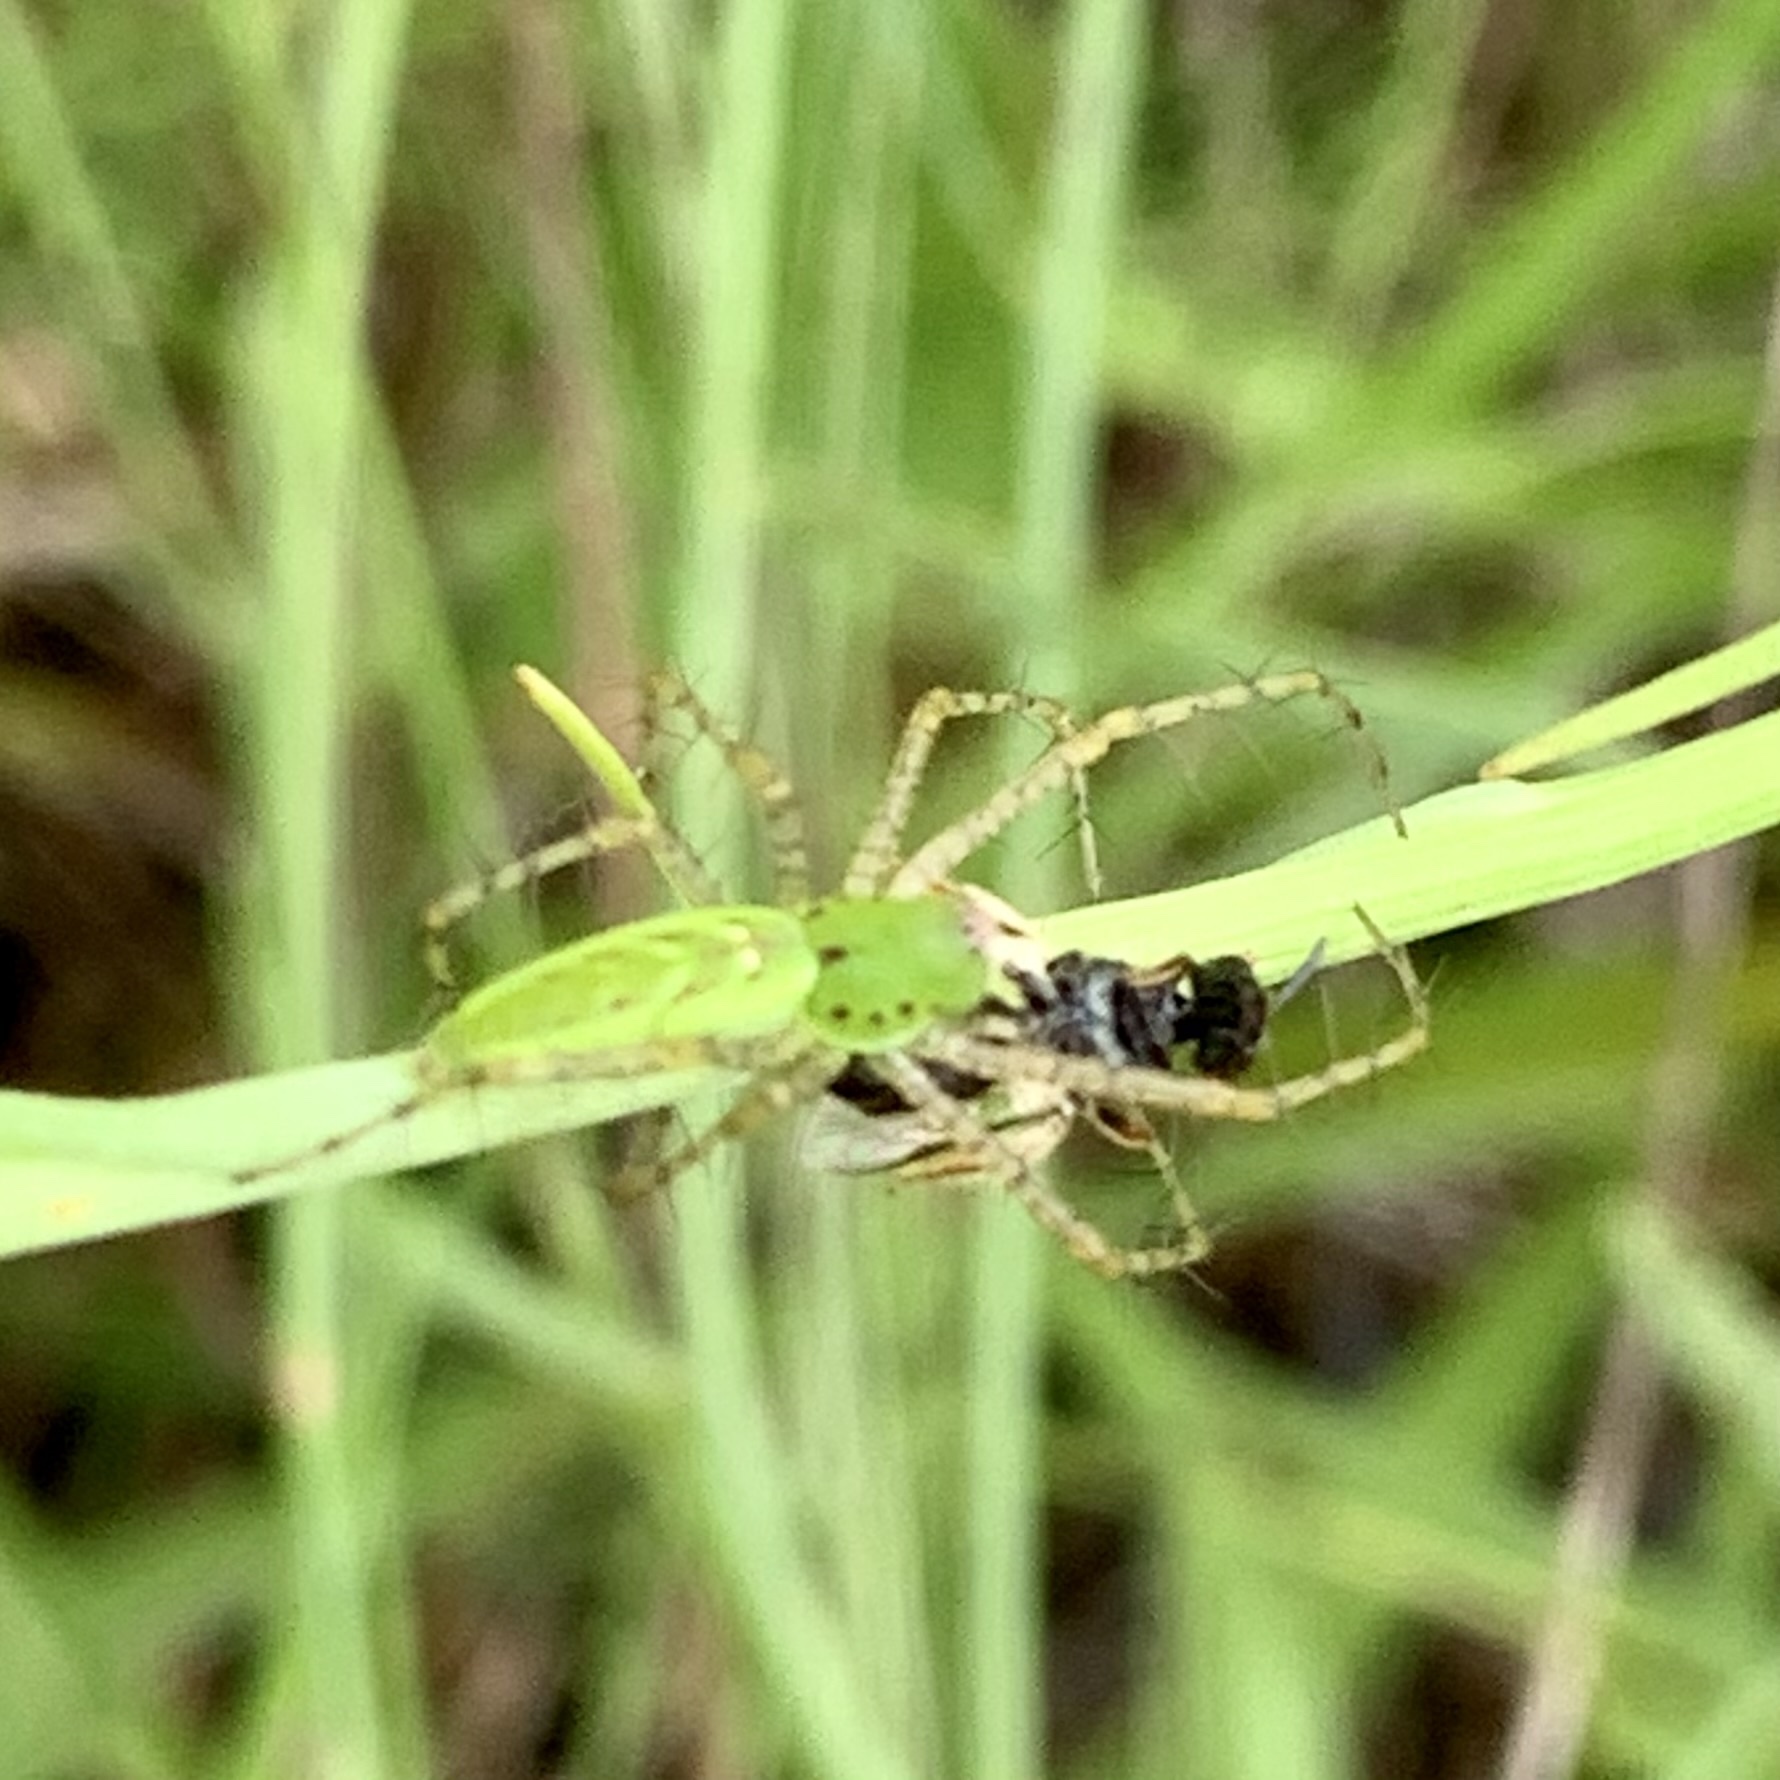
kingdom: Animalia
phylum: Arthropoda
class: Arachnida
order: Araneae
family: Oxyopidae
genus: Peucetia
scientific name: Peucetia viridans
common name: Lynx spiders
